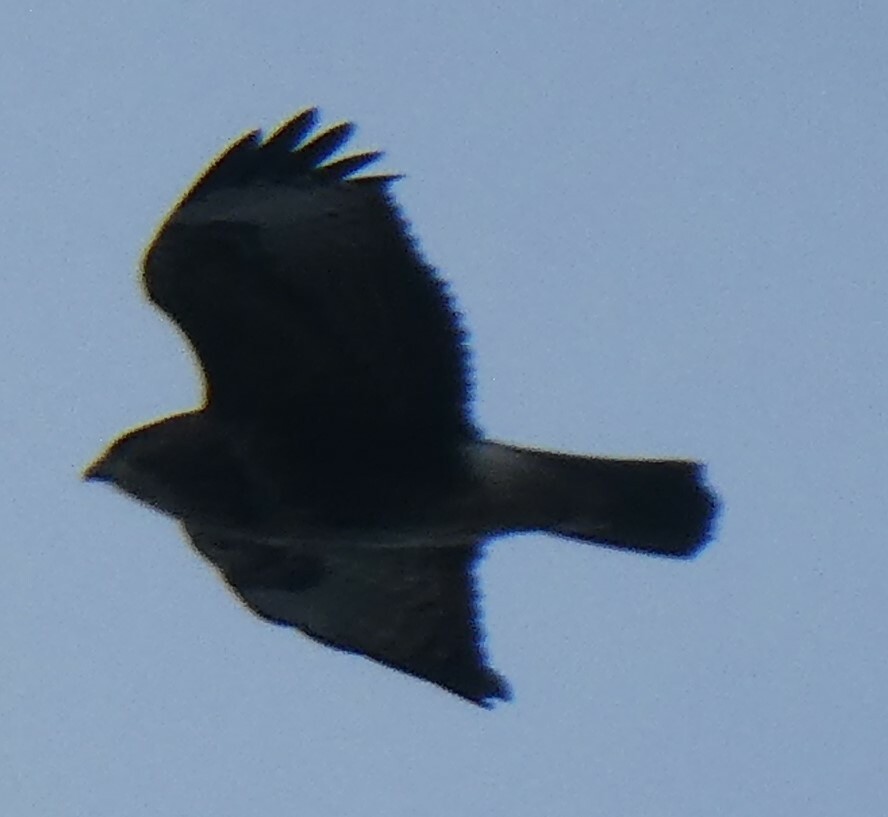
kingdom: Animalia
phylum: Chordata
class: Aves
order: Accipitriformes
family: Accipitridae
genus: Buteo
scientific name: Buteo buteo
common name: Common buzzard
